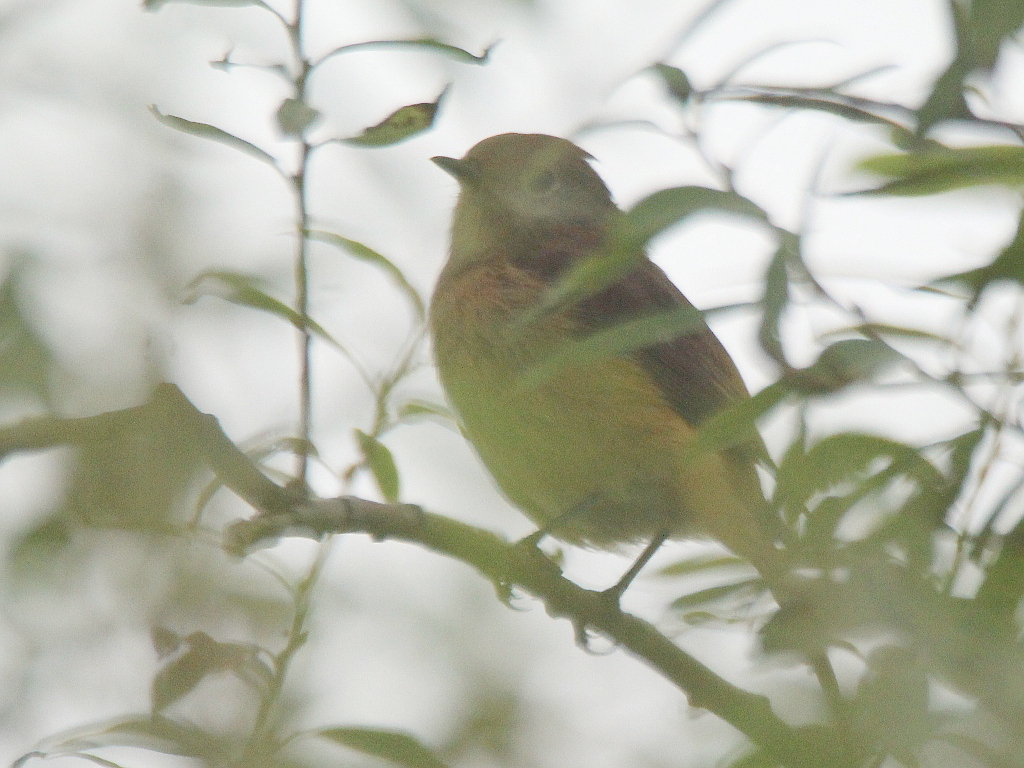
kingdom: Animalia
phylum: Chordata
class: Aves
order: Passeriformes
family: Muscicapidae
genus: Phoenicurus
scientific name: Phoenicurus auroreus
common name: Daurian redstart
